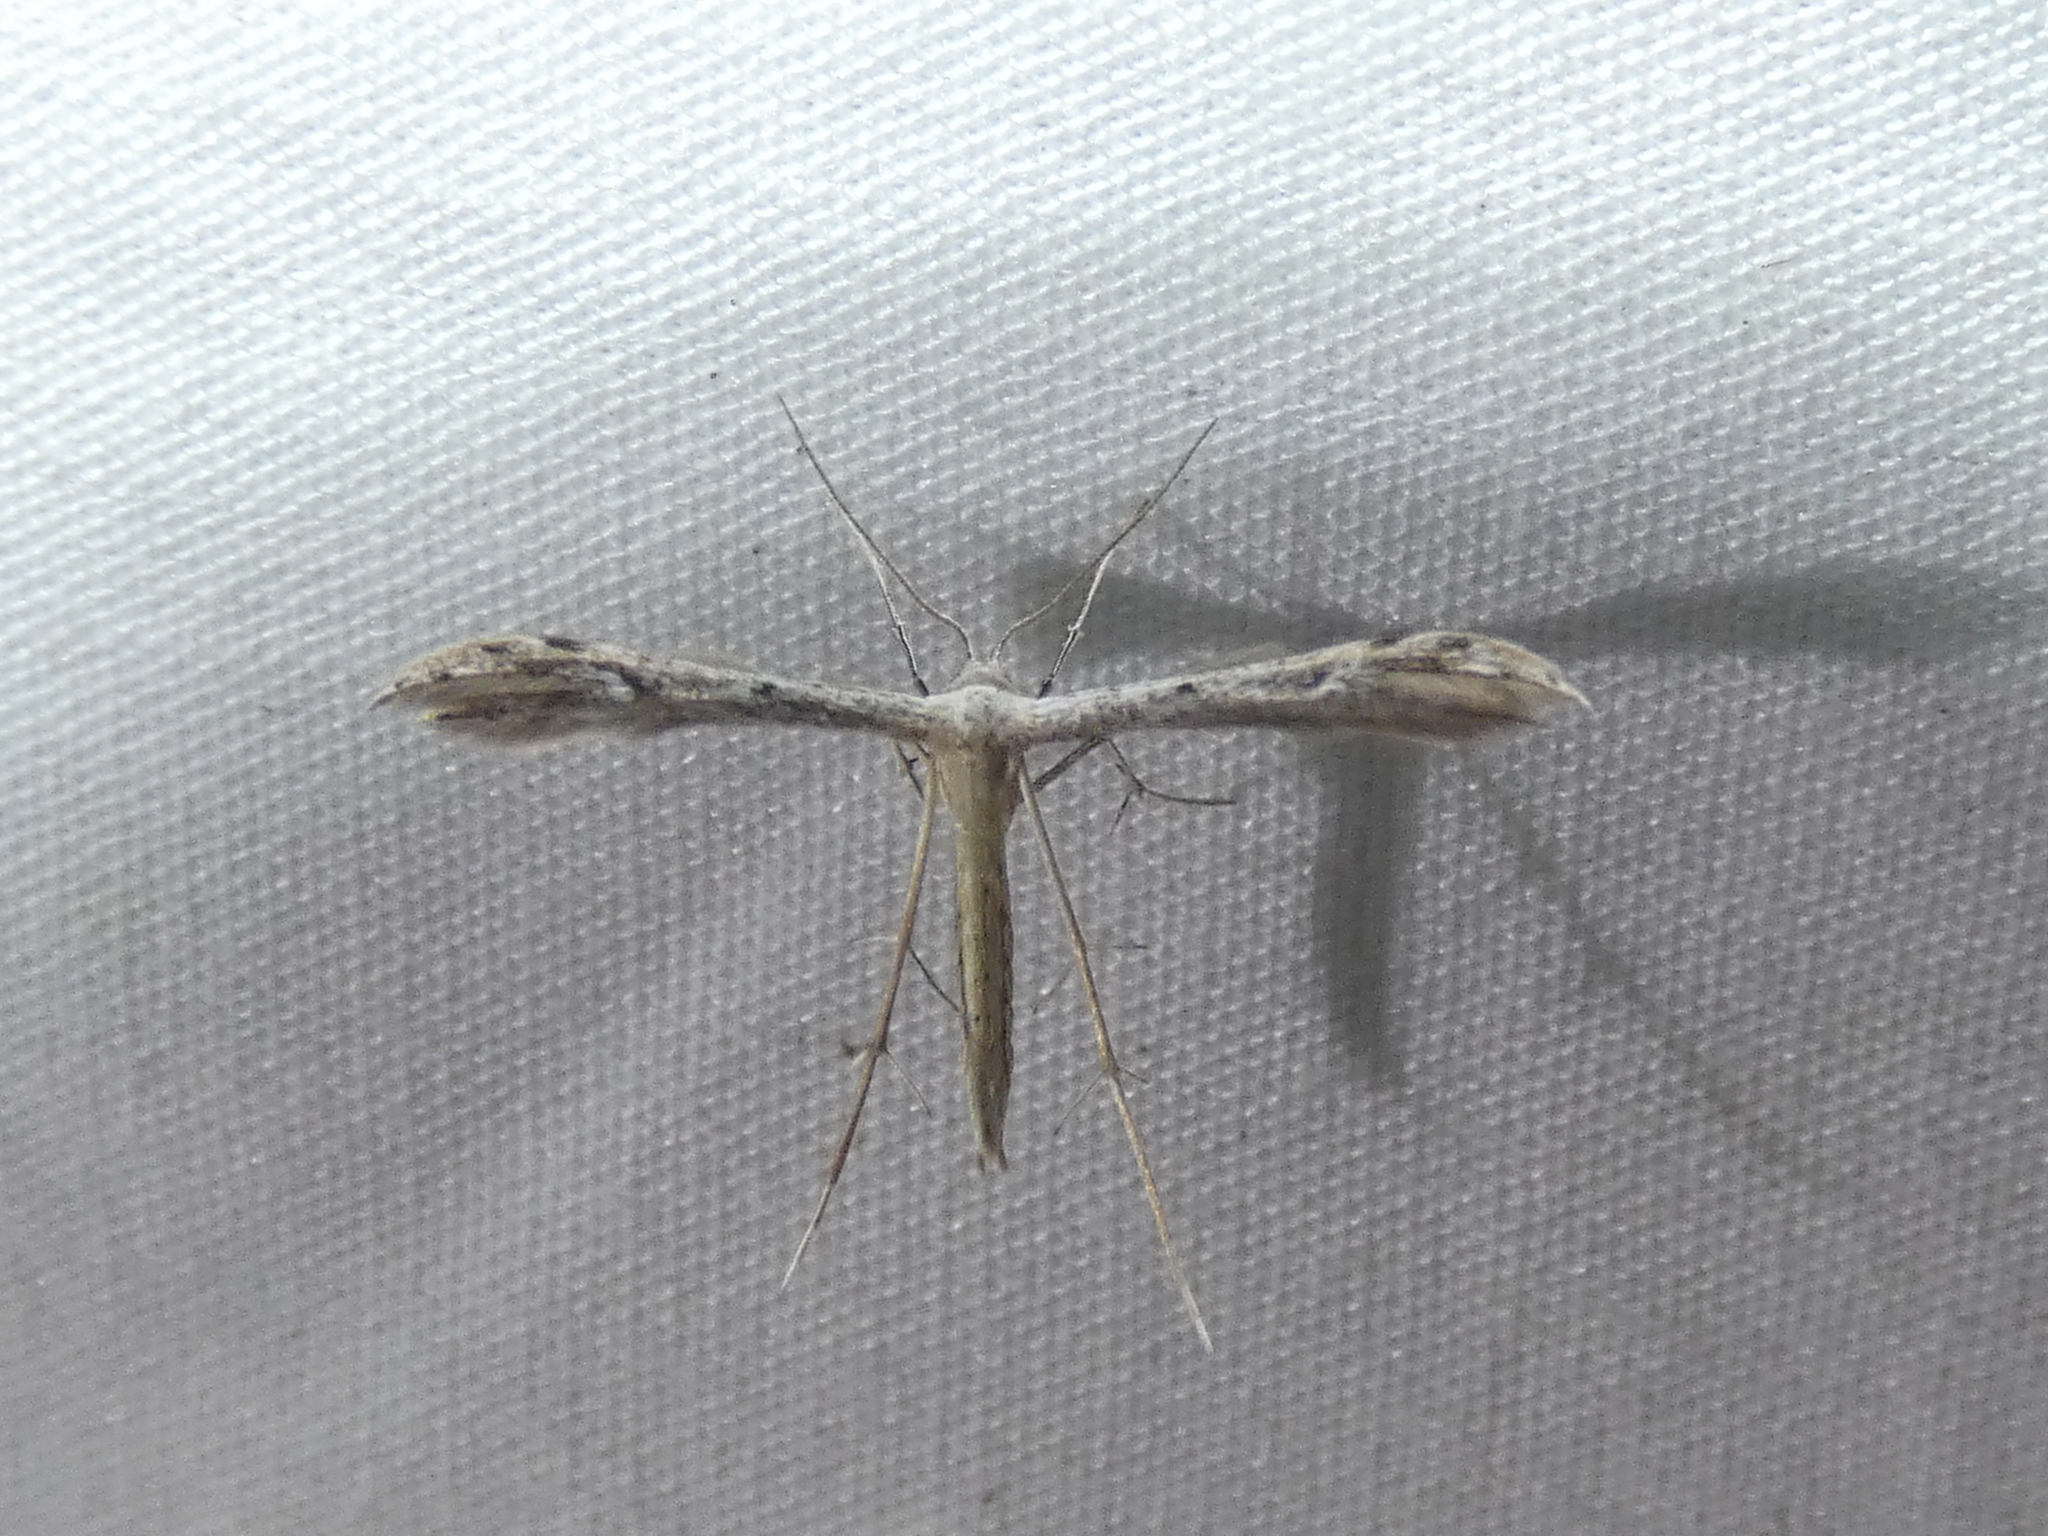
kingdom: Animalia
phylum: Arthropoda
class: Insecta
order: Lepidoptera
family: Pterophoridae
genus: Pselnophorus
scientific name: Pselnophorus belfragei
